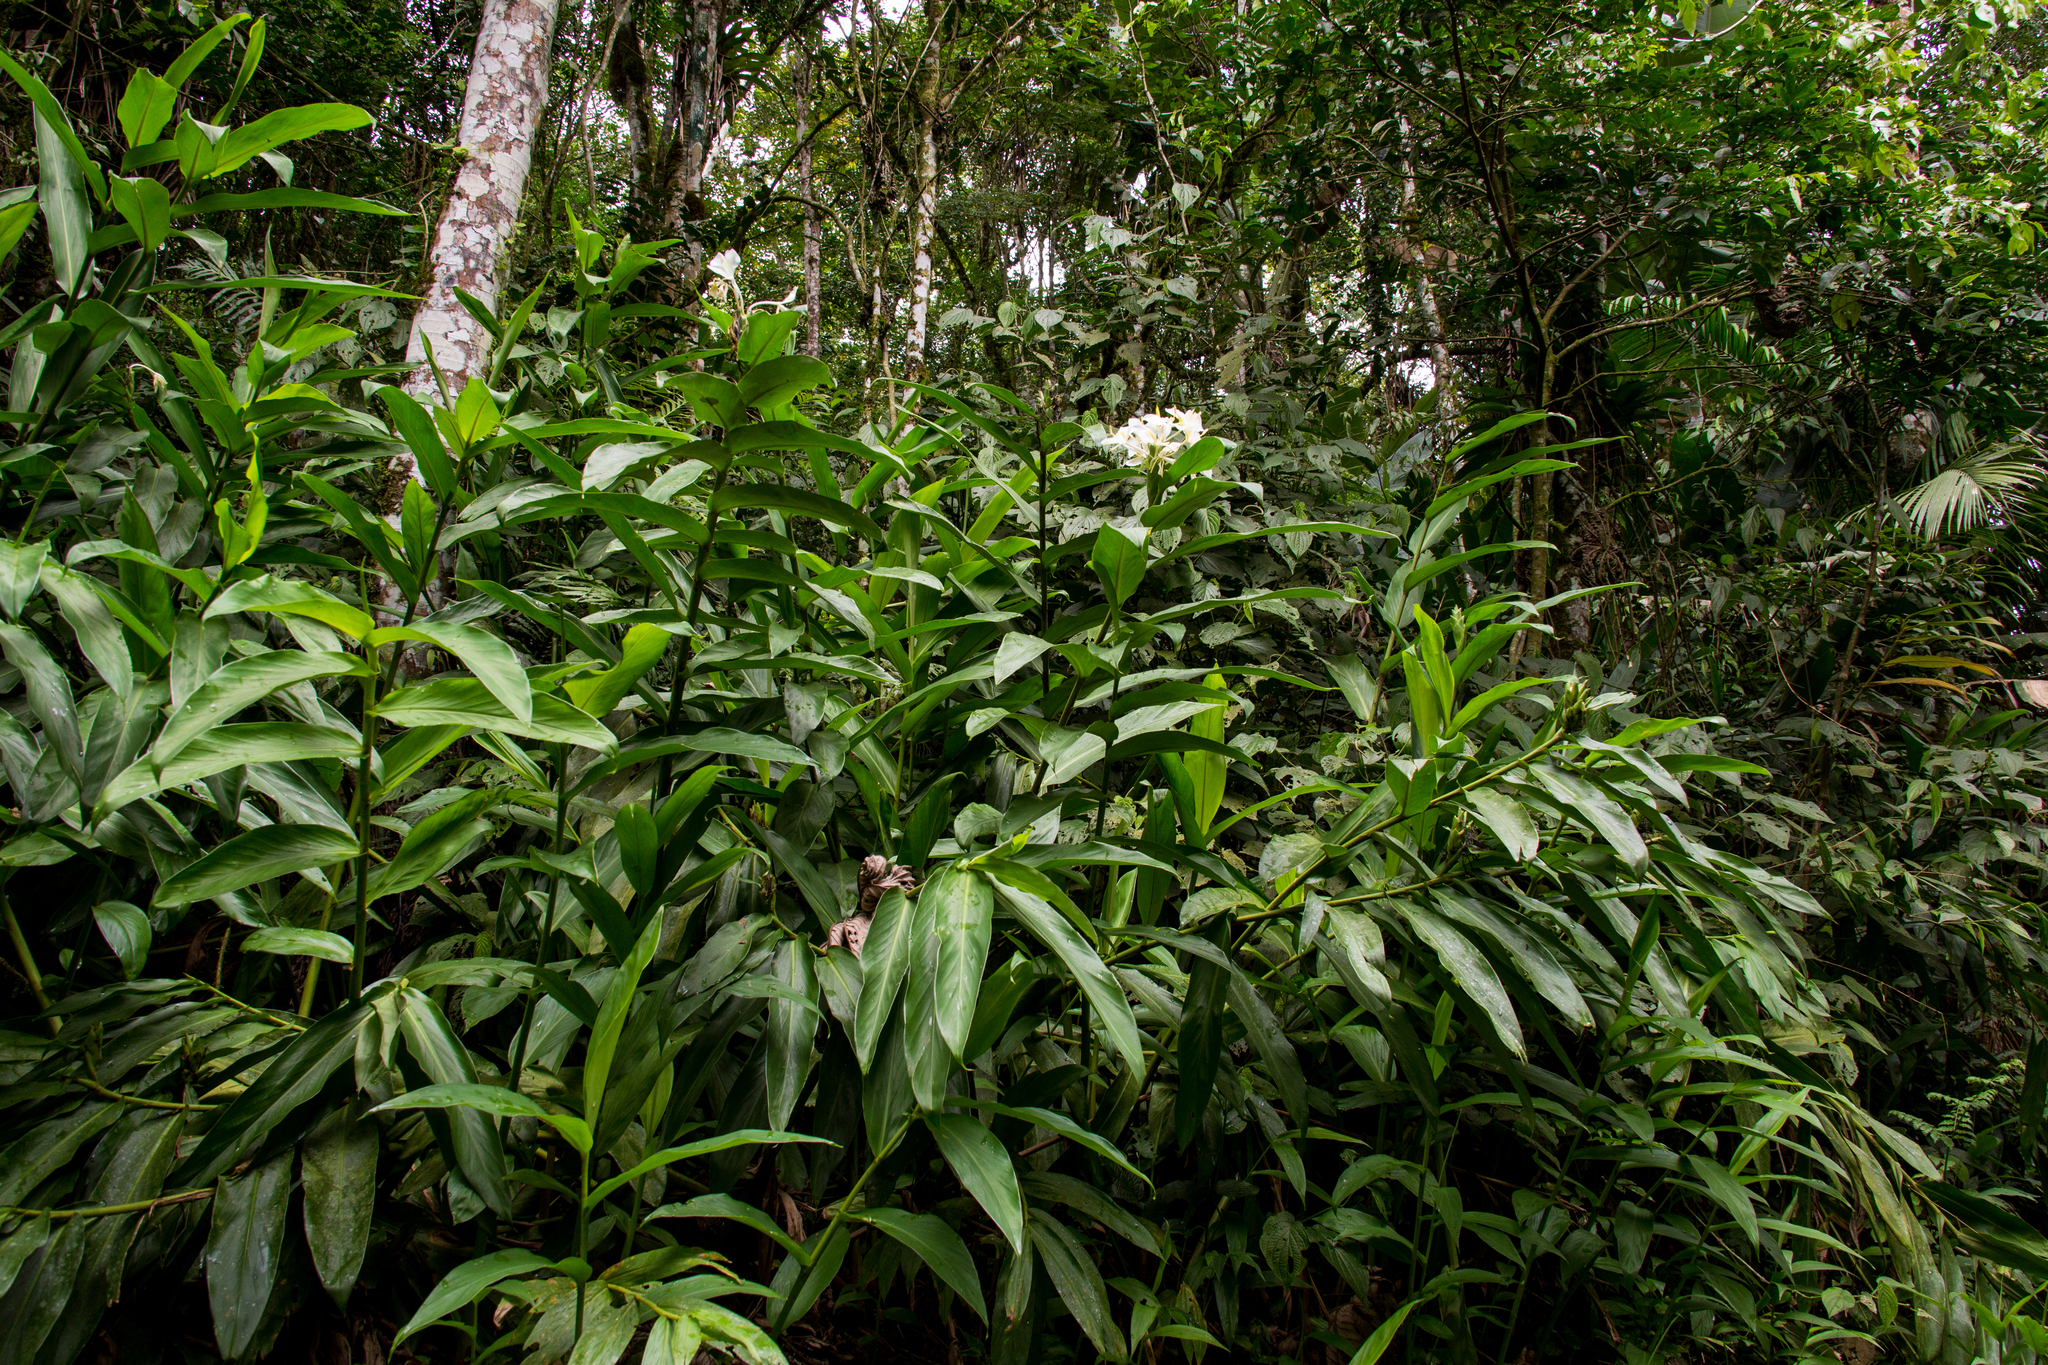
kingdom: Plantae
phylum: Tracheophyta
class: Liliopsida
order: Zingiberales
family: Zingiberaceae
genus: Hedychium
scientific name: Hedychium coronarium
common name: White garland-lily
